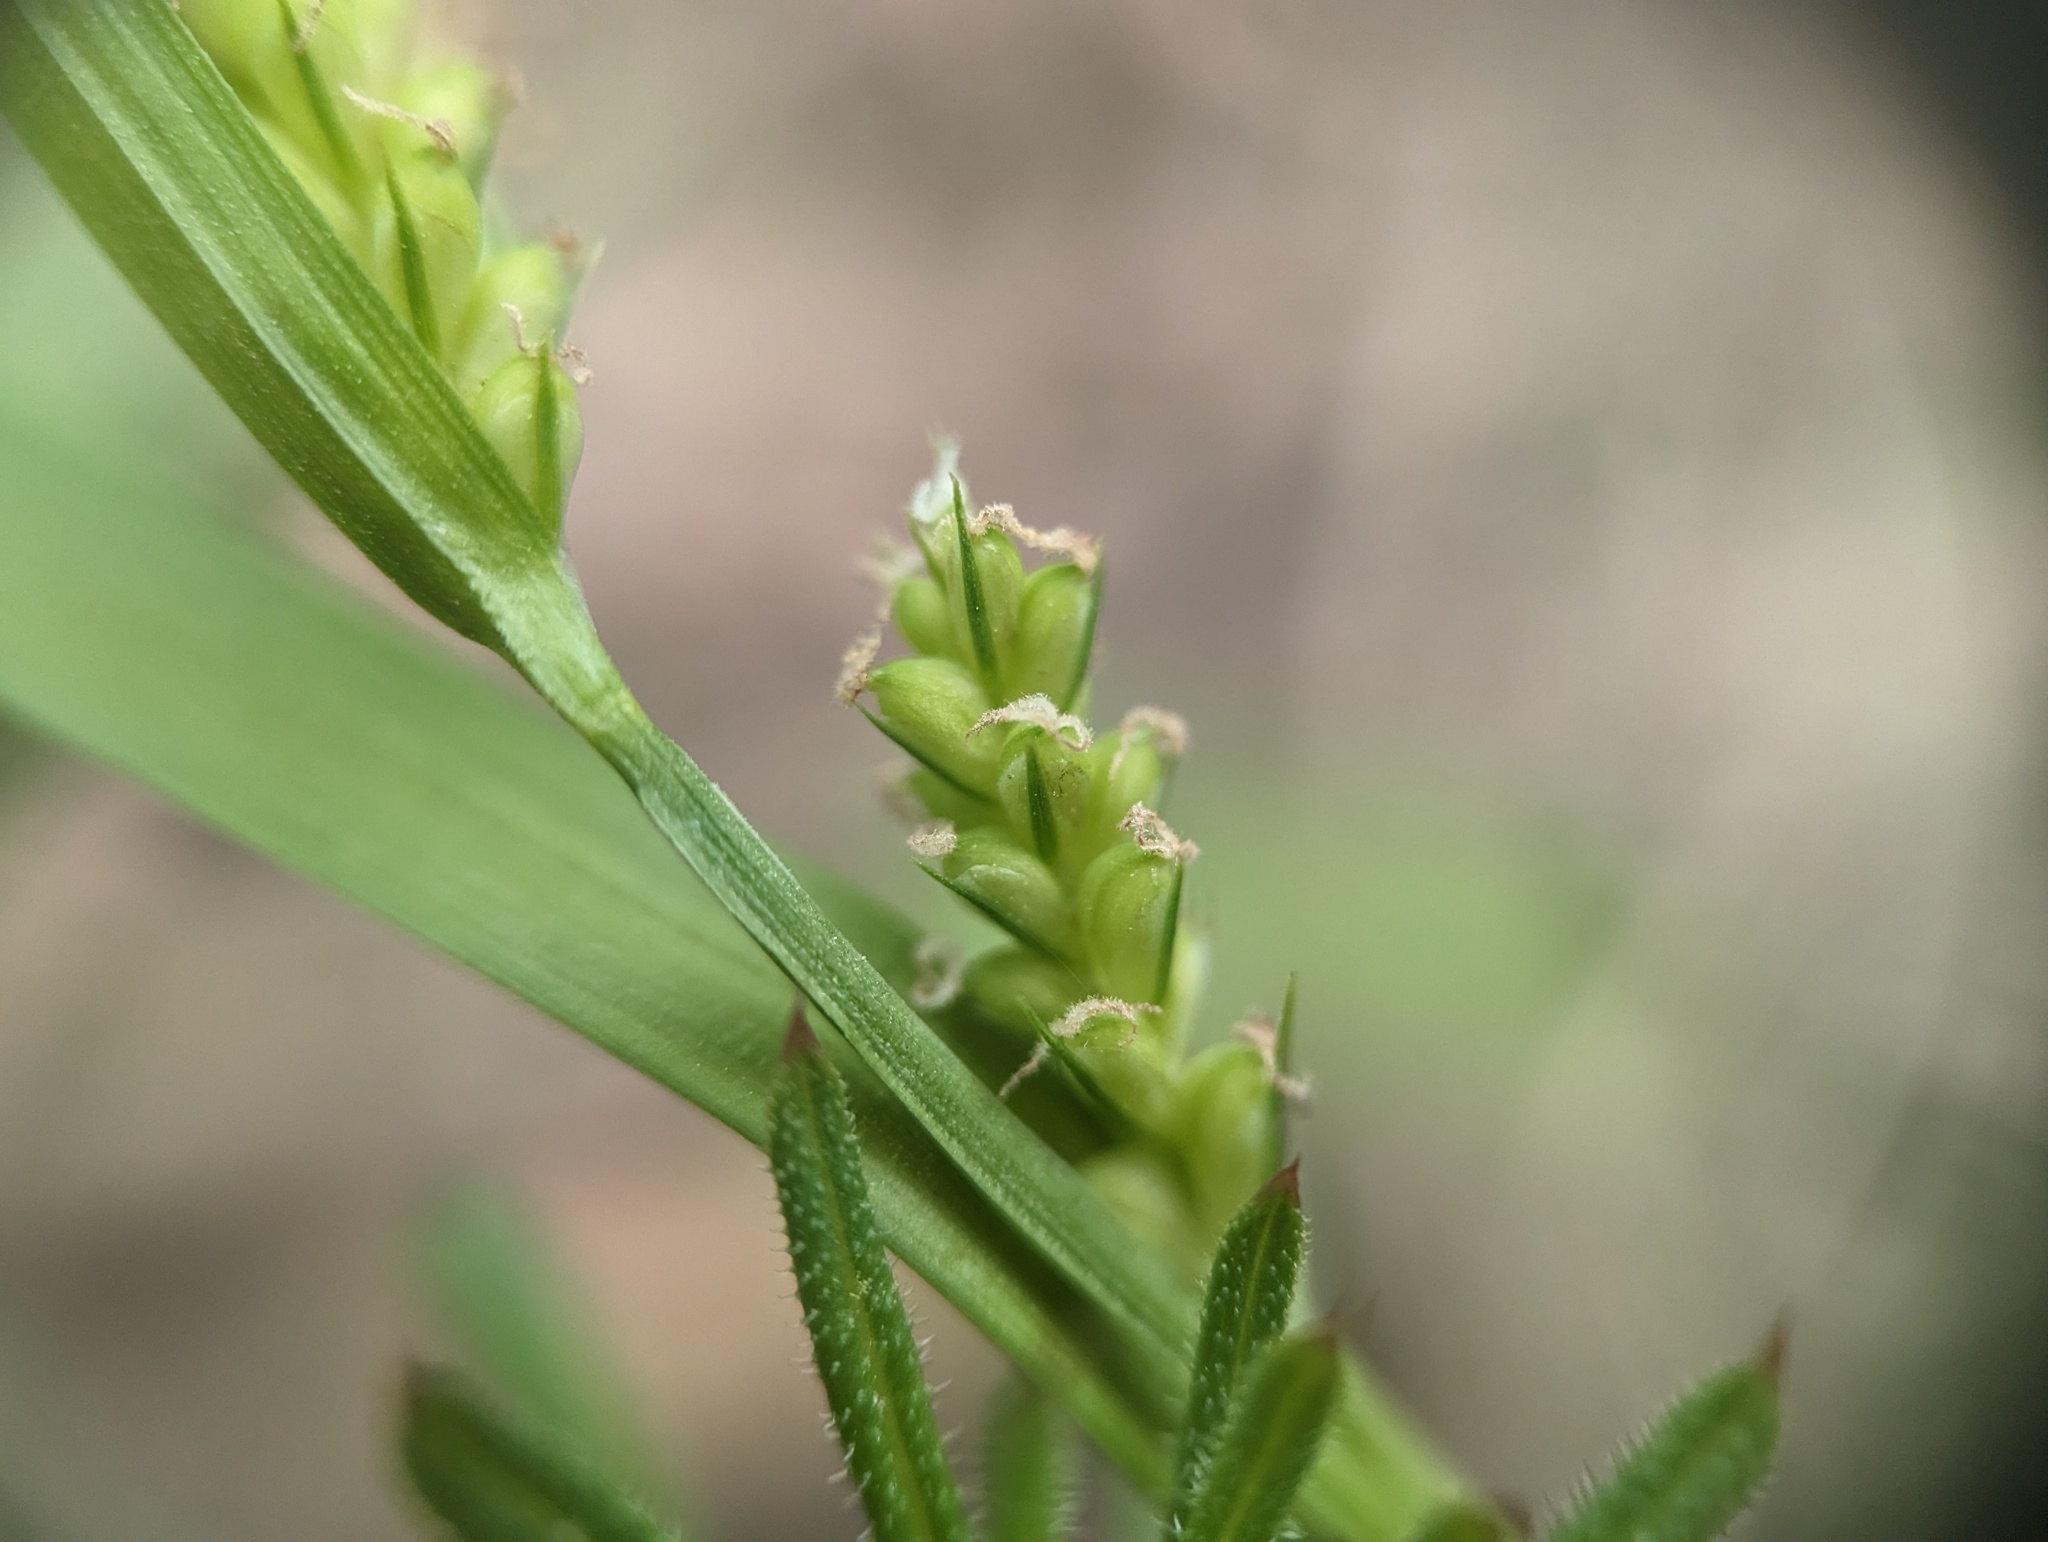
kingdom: Plantae
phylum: Tracheophyta
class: Liliopsida
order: Poales
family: Cyperaceae
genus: Carex
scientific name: Carex blanda
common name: Bland sedge
